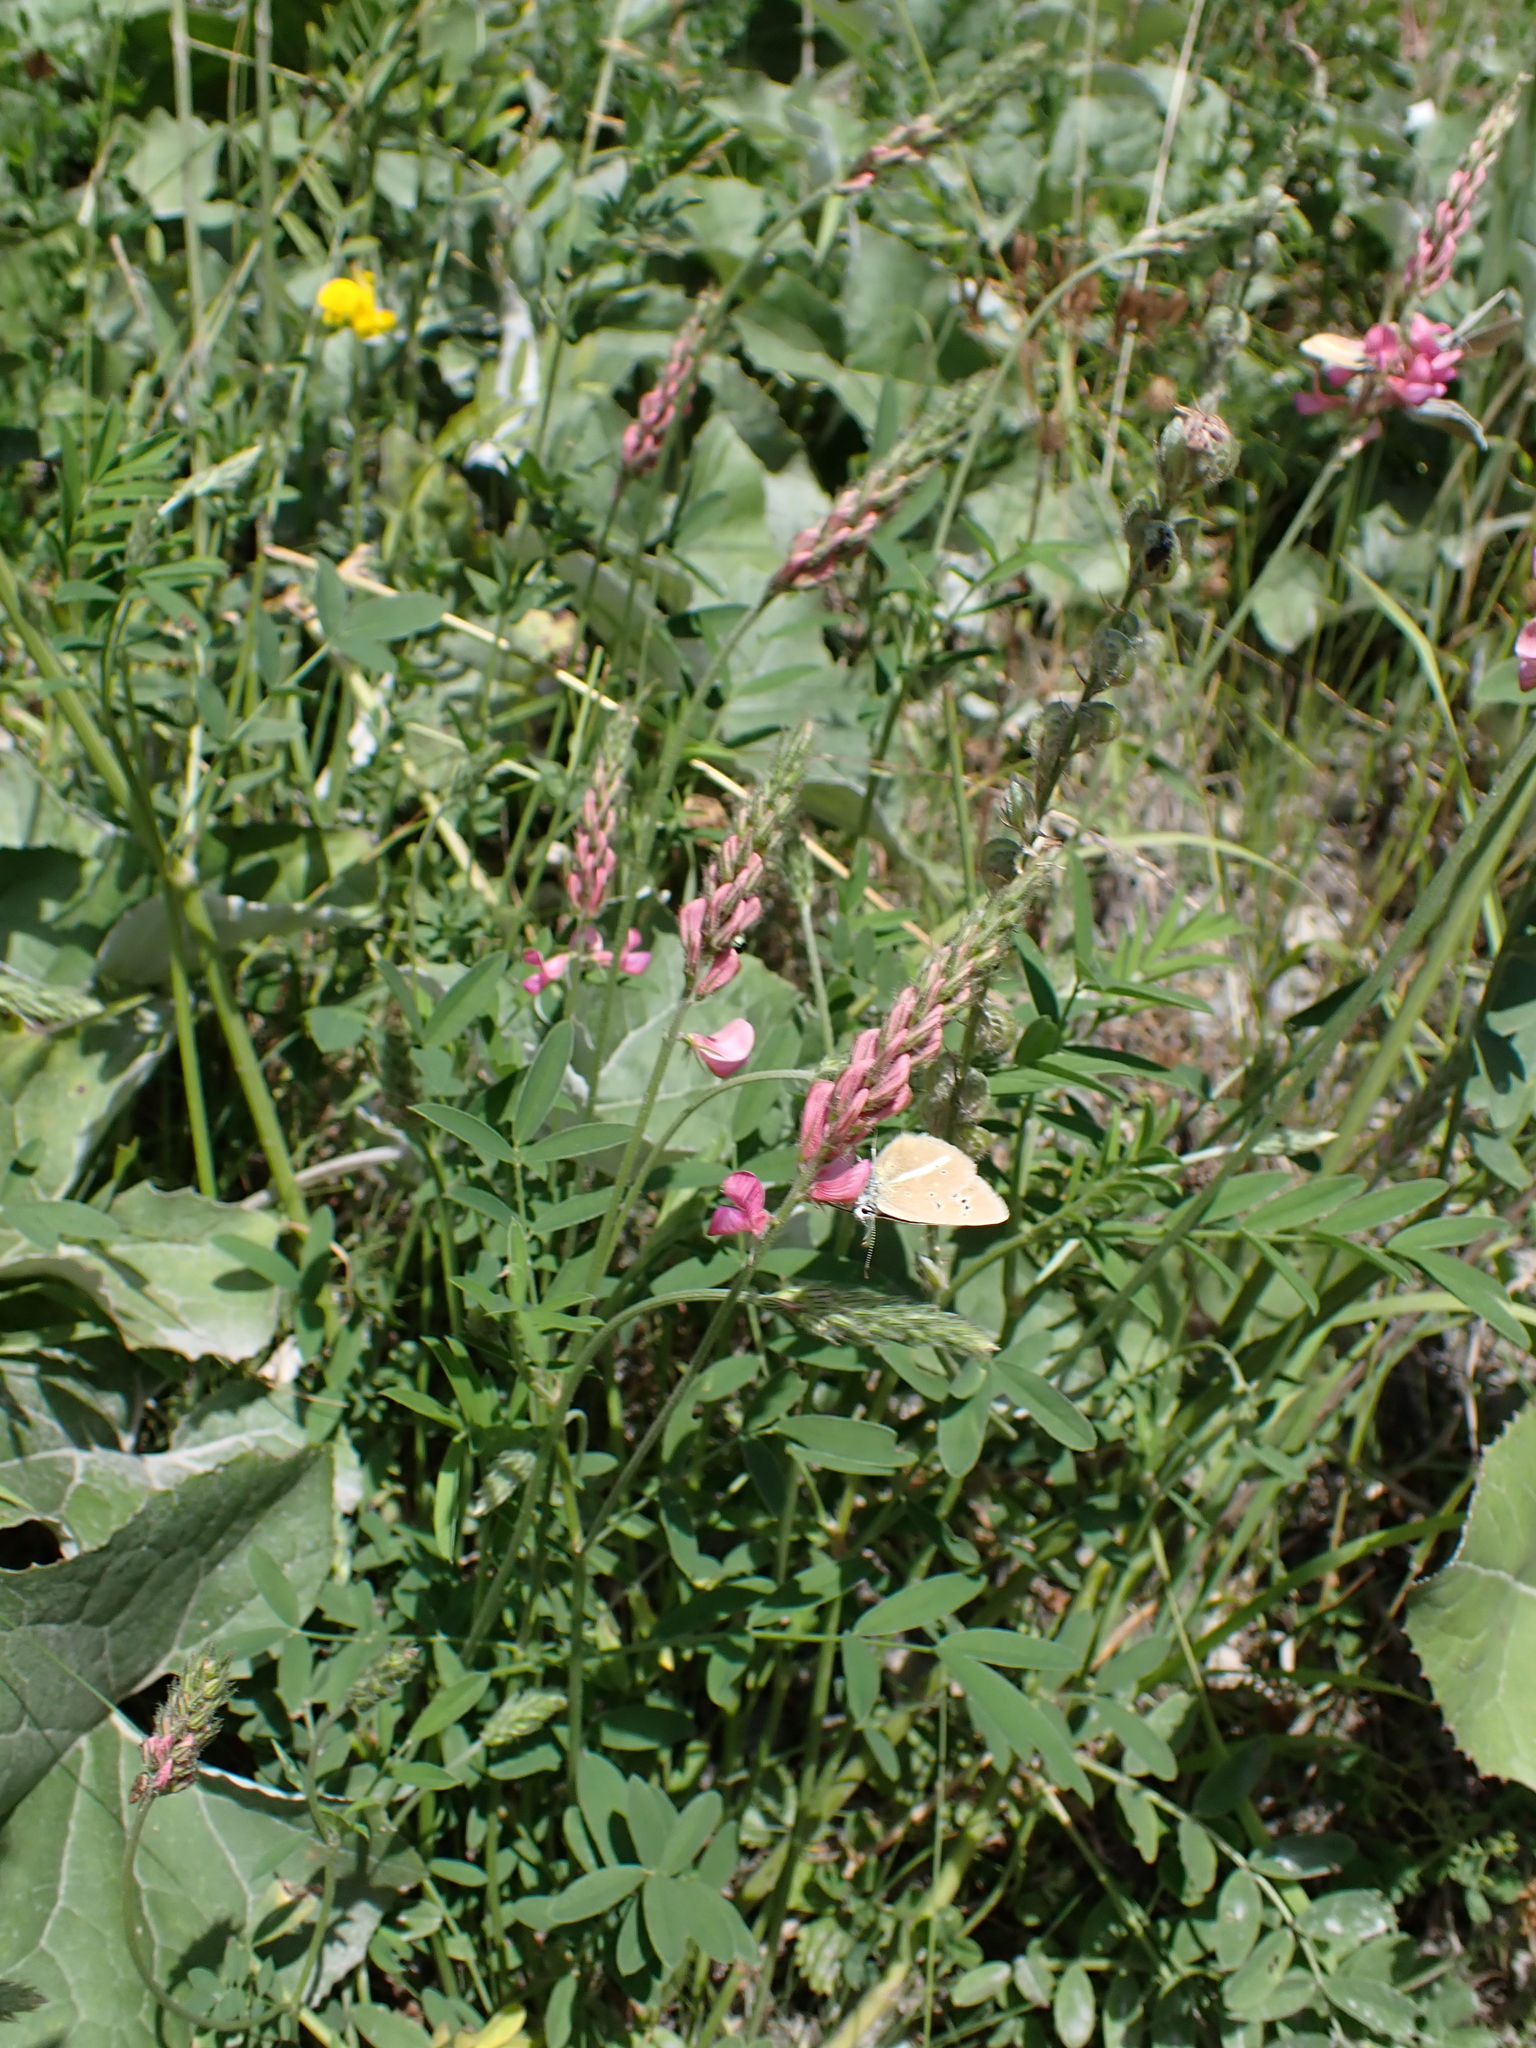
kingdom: Animalia
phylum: Arthropoda
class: Insecta
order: Lepidoptera
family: Lycaenidae
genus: Agrodiaetus
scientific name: Agrodiaetus damon
